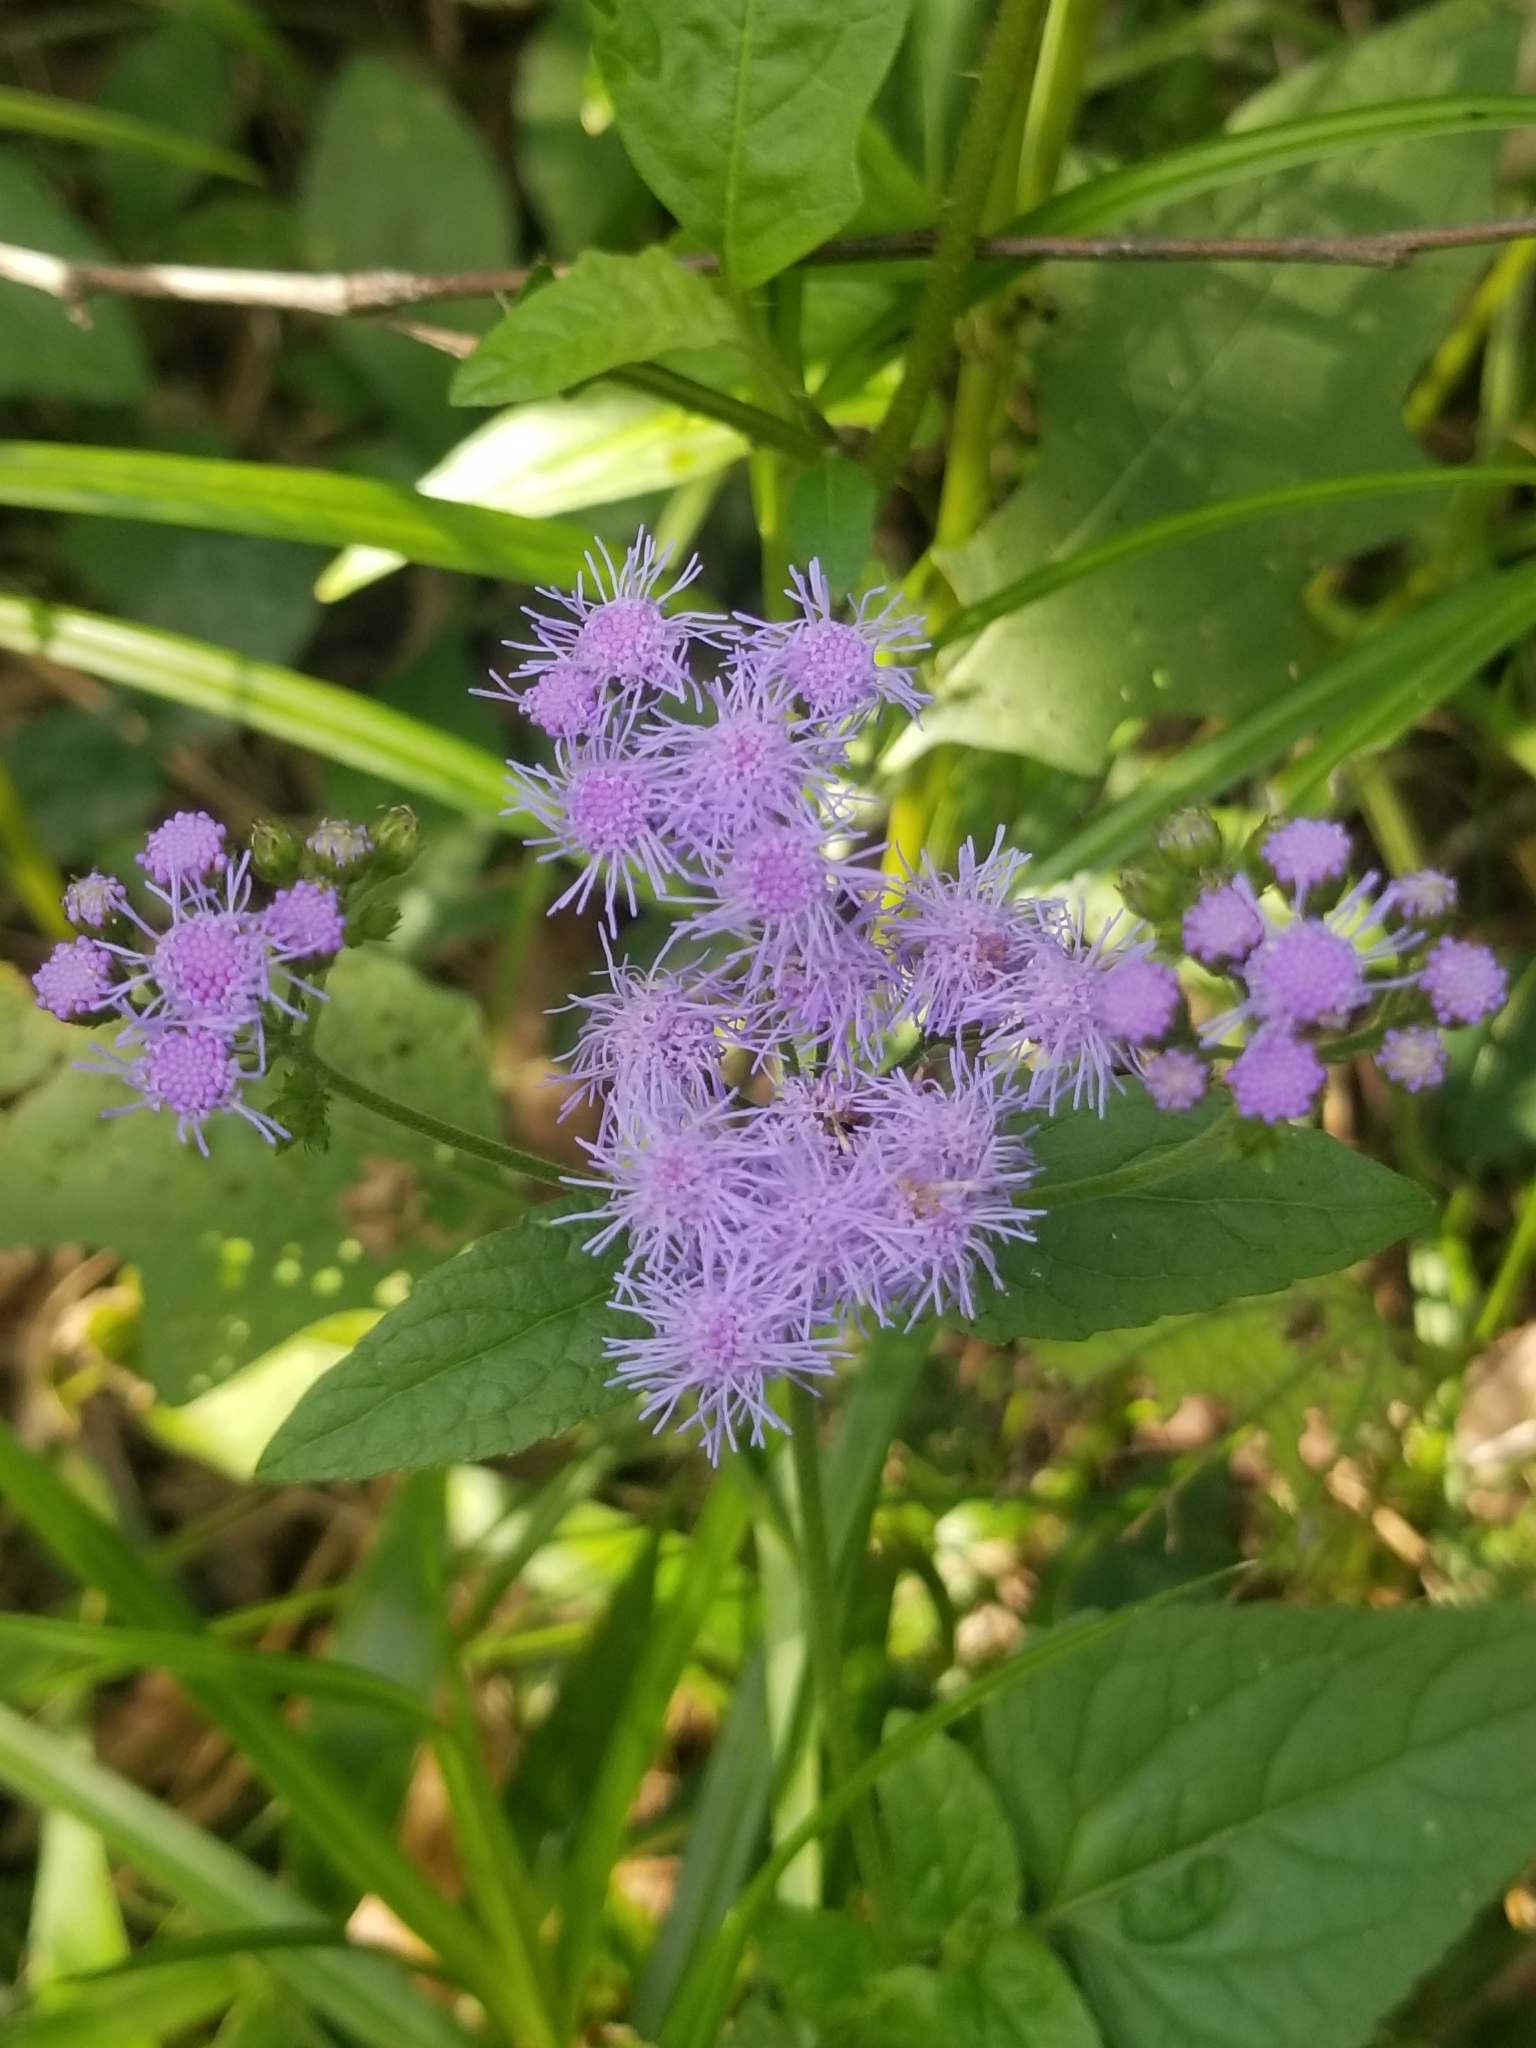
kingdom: Plantae
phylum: Tracheophyta
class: Magnoliopsida
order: Asterales
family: Asteraceae
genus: Conoclinium
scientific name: Conoclinium coelestinum
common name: Blue mistflower
